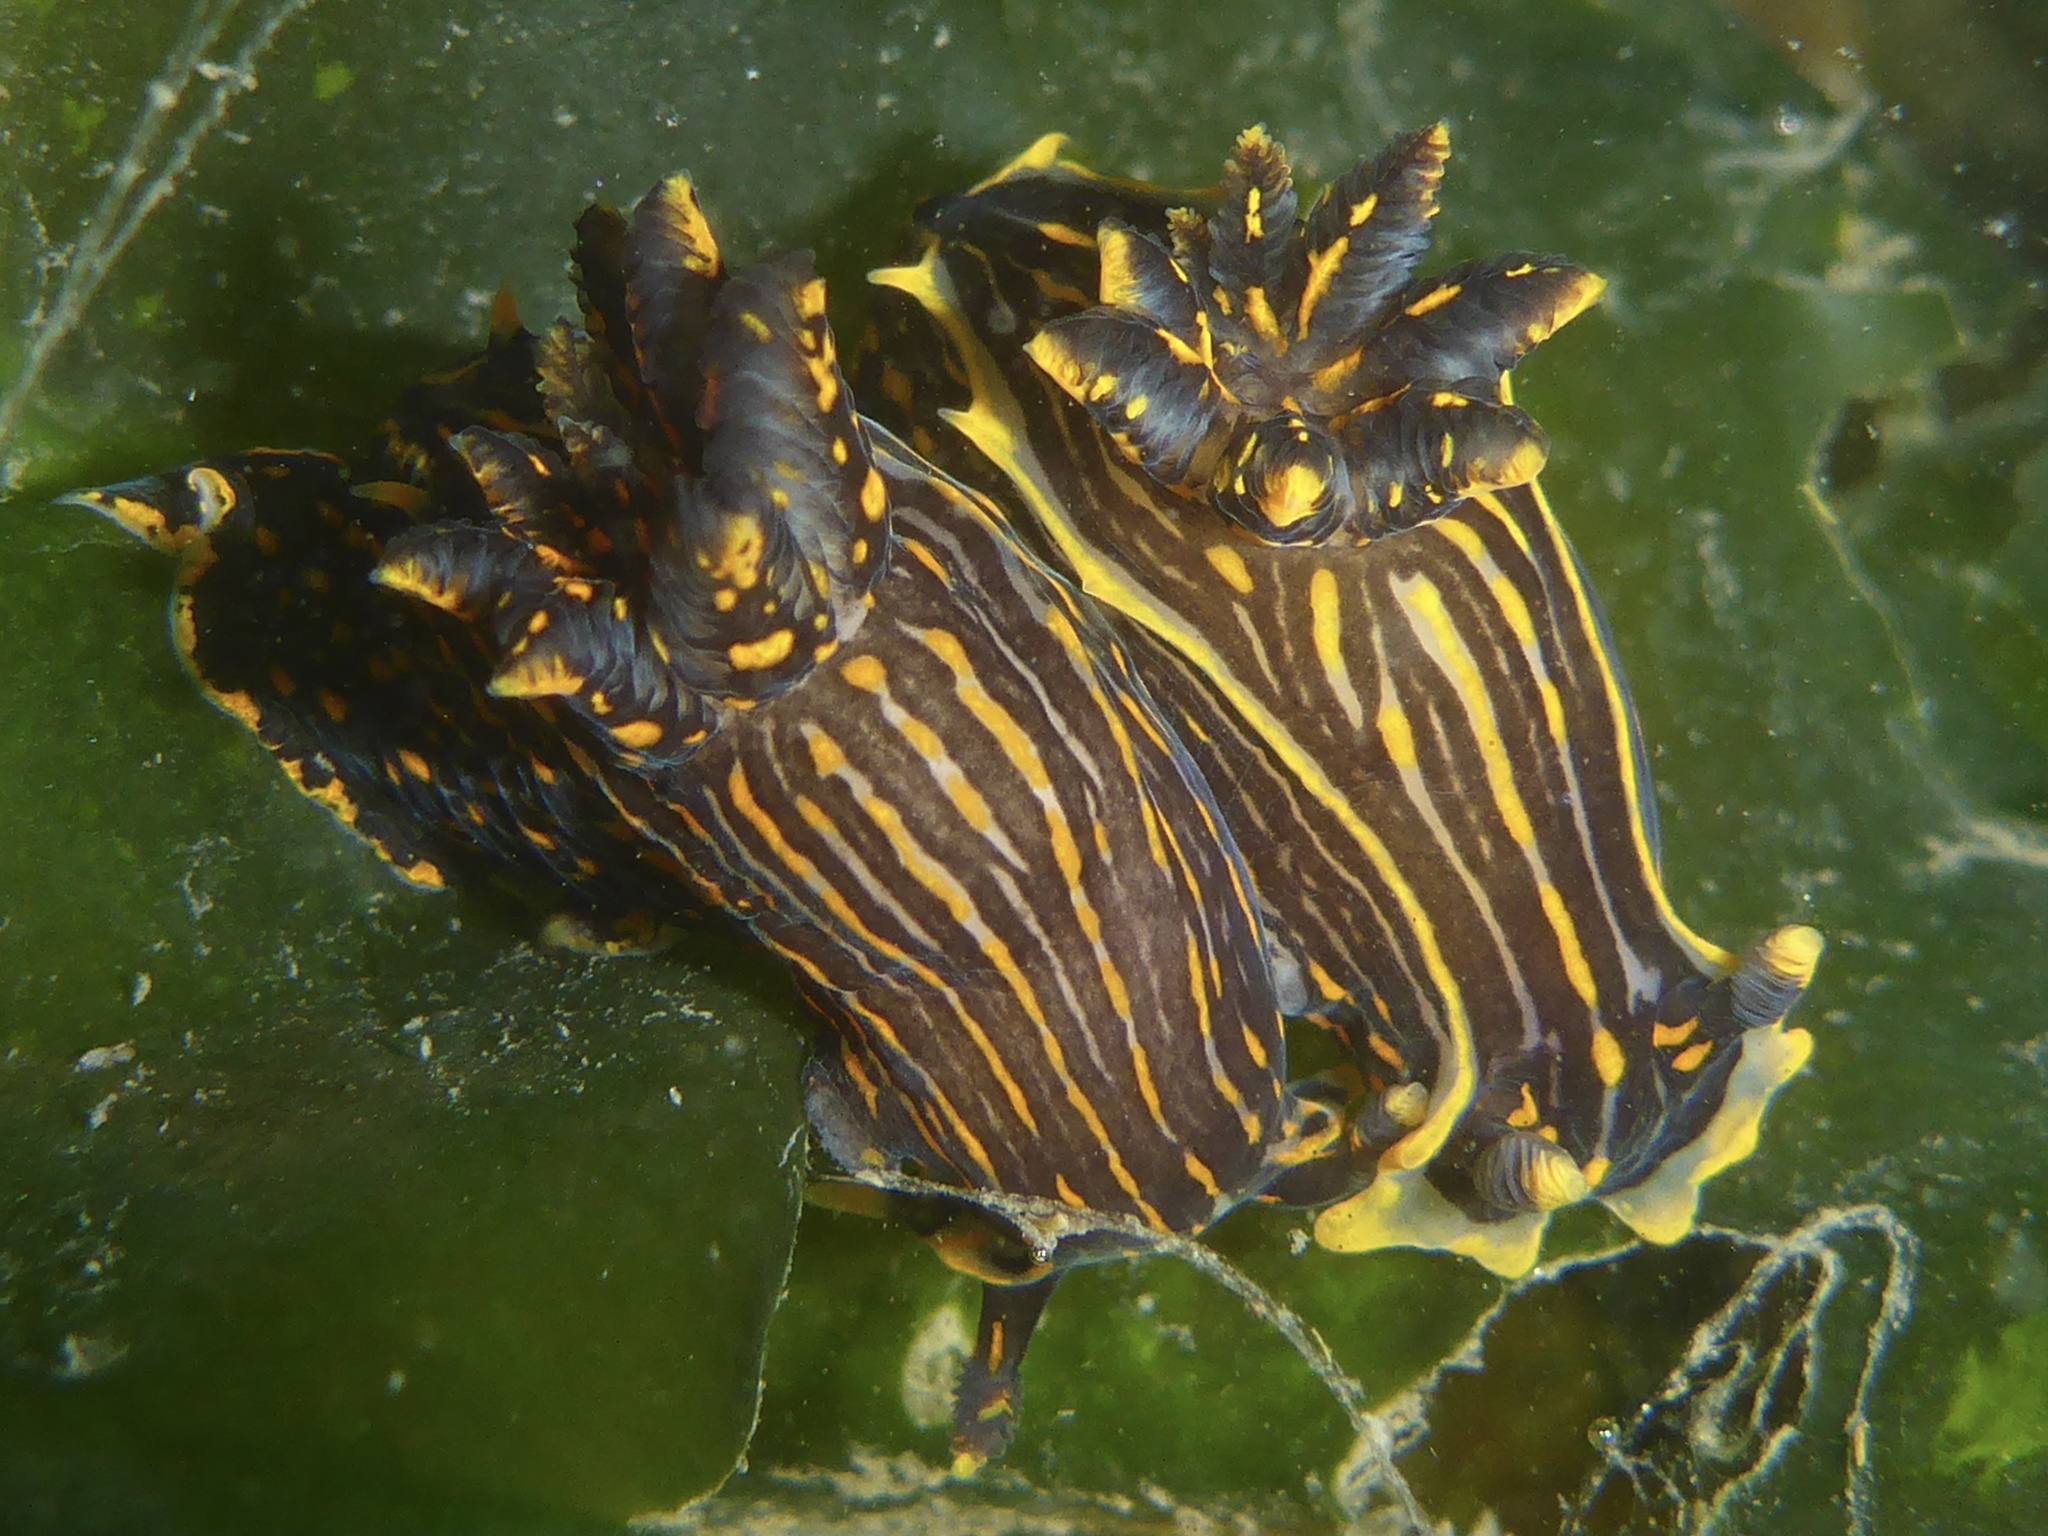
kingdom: Animalia
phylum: Mollusca
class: Gastropoda
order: Nudibranchia
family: Polyceridae
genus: Polycera
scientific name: Polycera atra
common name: Orange-spike polycera
